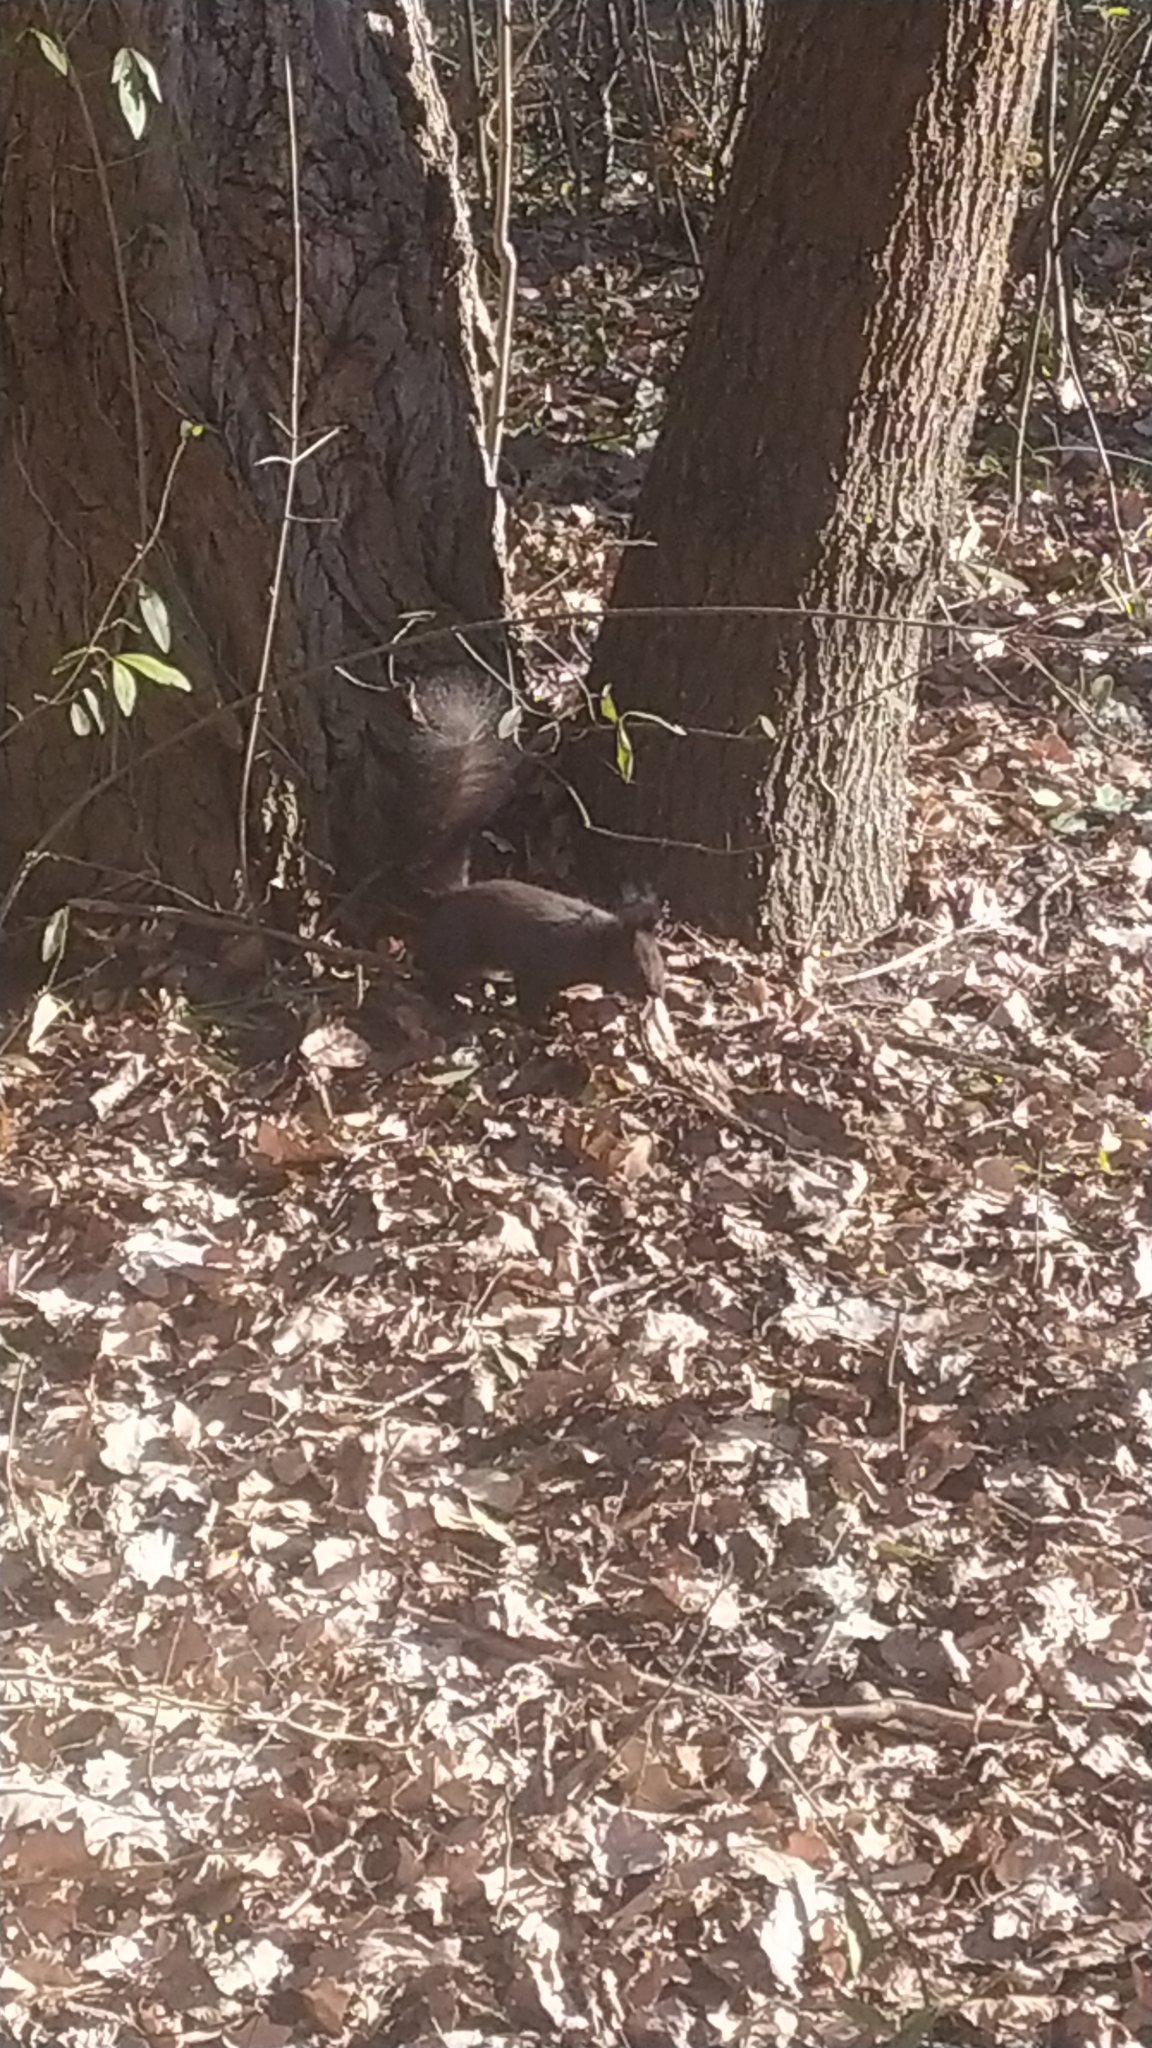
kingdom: Animalia
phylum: Chordata
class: Mammalia
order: Rodentia
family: Sciuridae
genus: Sciurus
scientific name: Sciurus vulgaris
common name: Eurasian red squirrel
